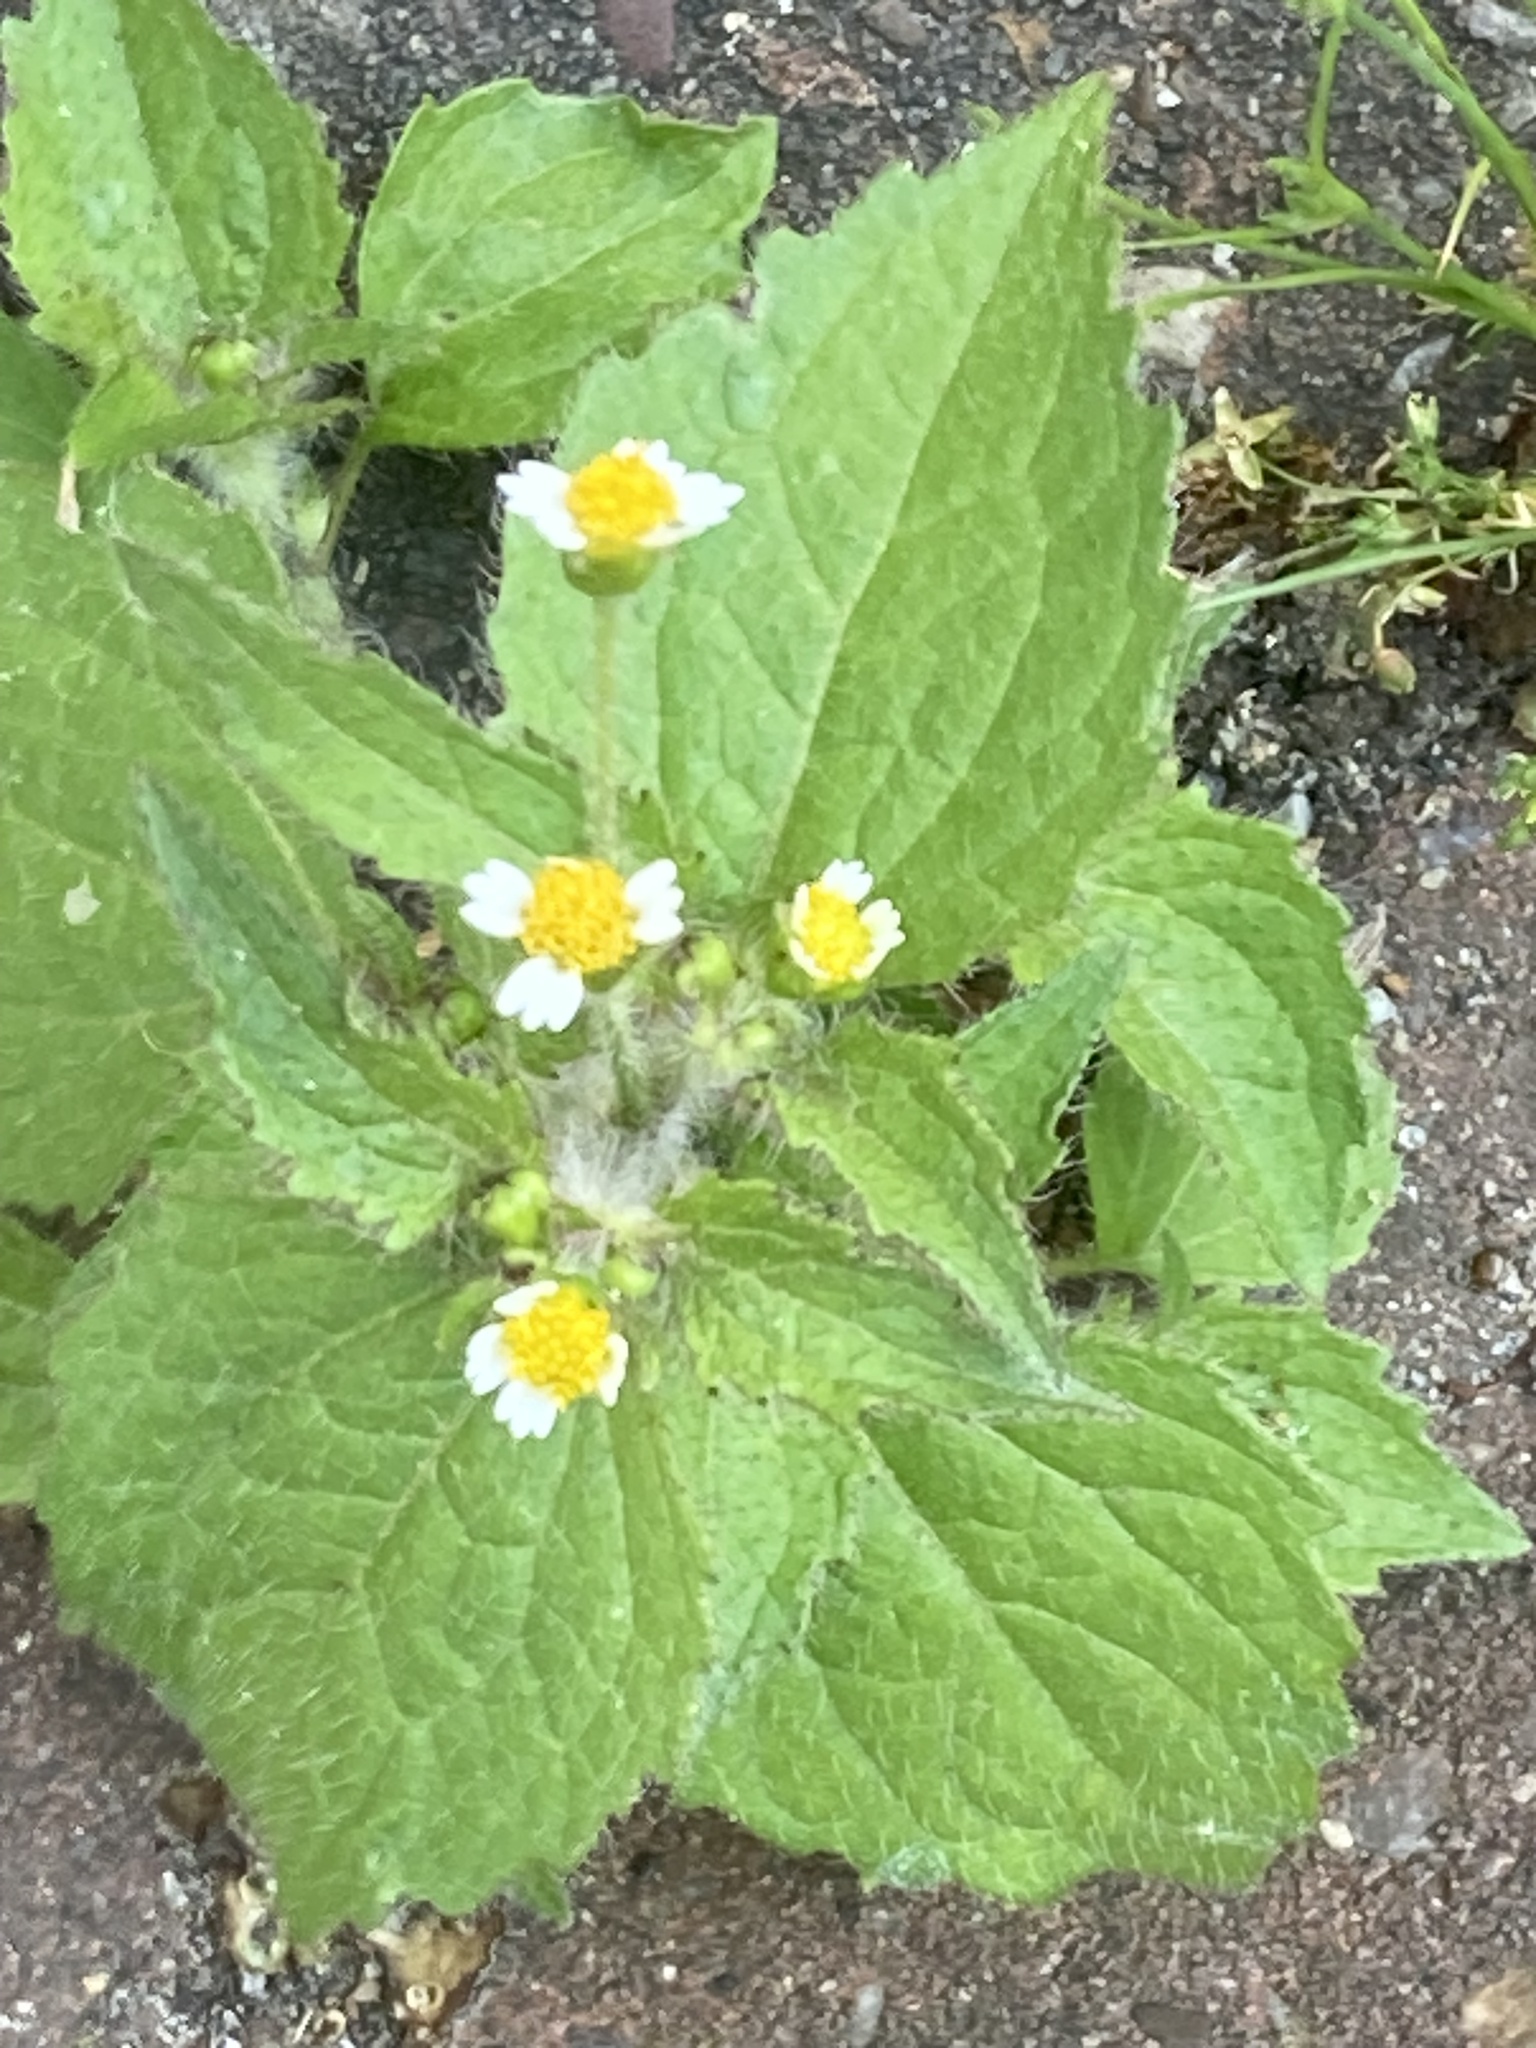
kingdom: Plantae
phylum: Tracheophyta
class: Magnoliopsida
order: Asterales
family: Asteraceae
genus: Galinsoga
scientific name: Galinsoga quadriradiata
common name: Shaggy soldier
